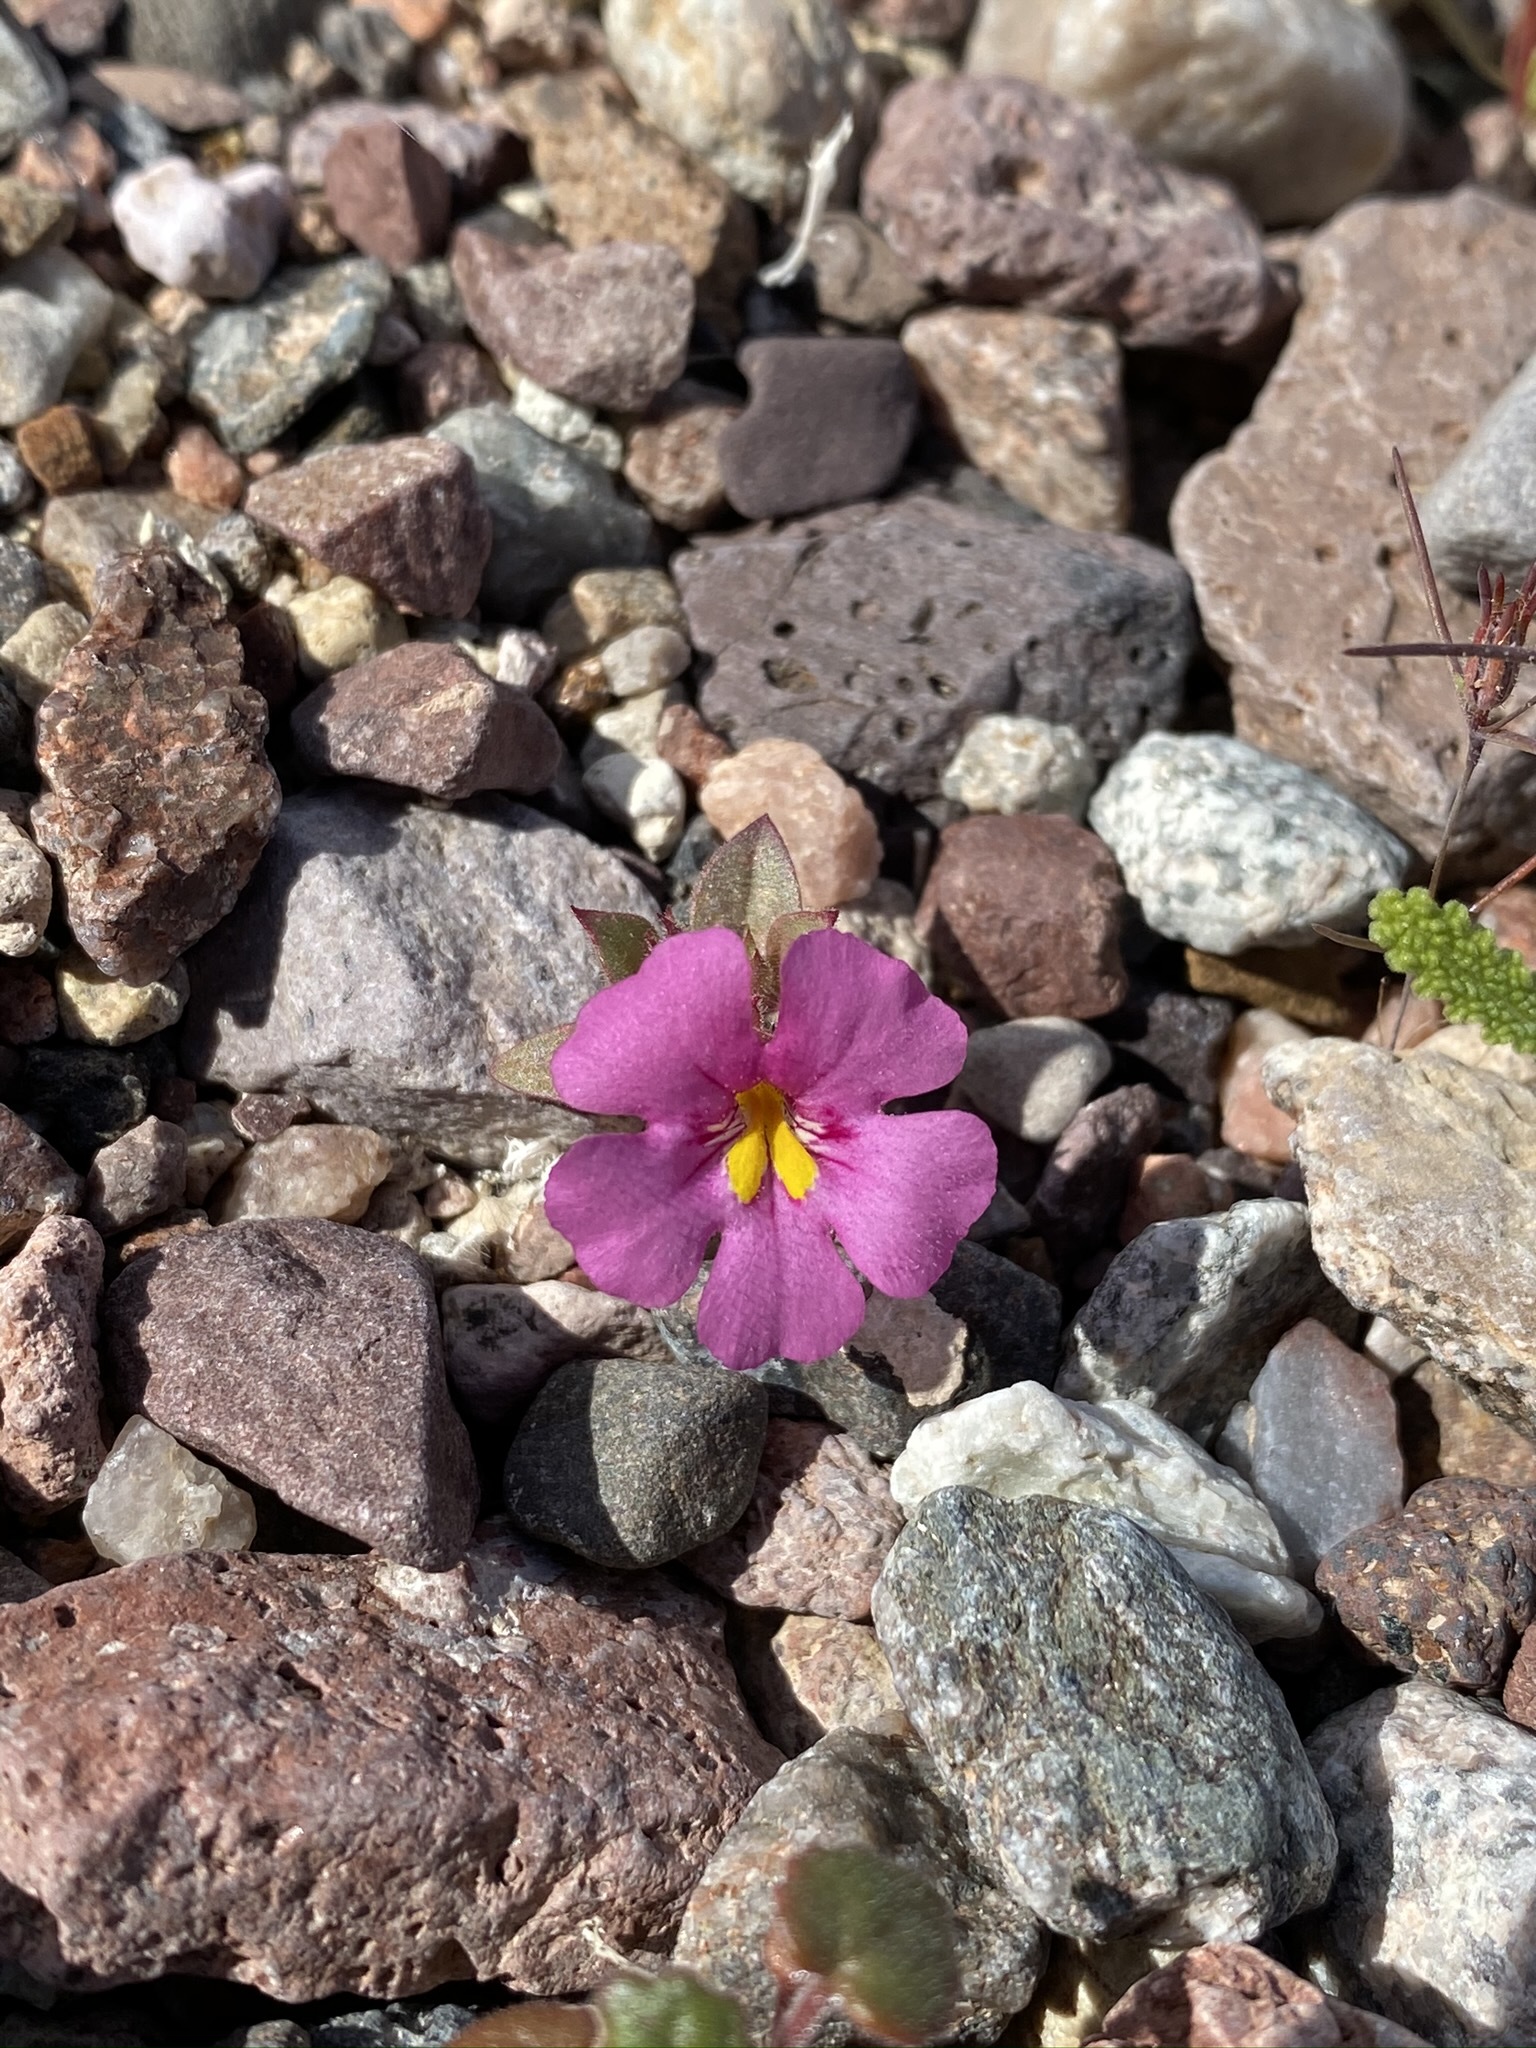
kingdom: Plantae
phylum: Tracheophyta
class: Magnoliopsida
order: Lamiales
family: Phrymaceae
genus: Diplacus
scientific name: Diplacus bigelovii
